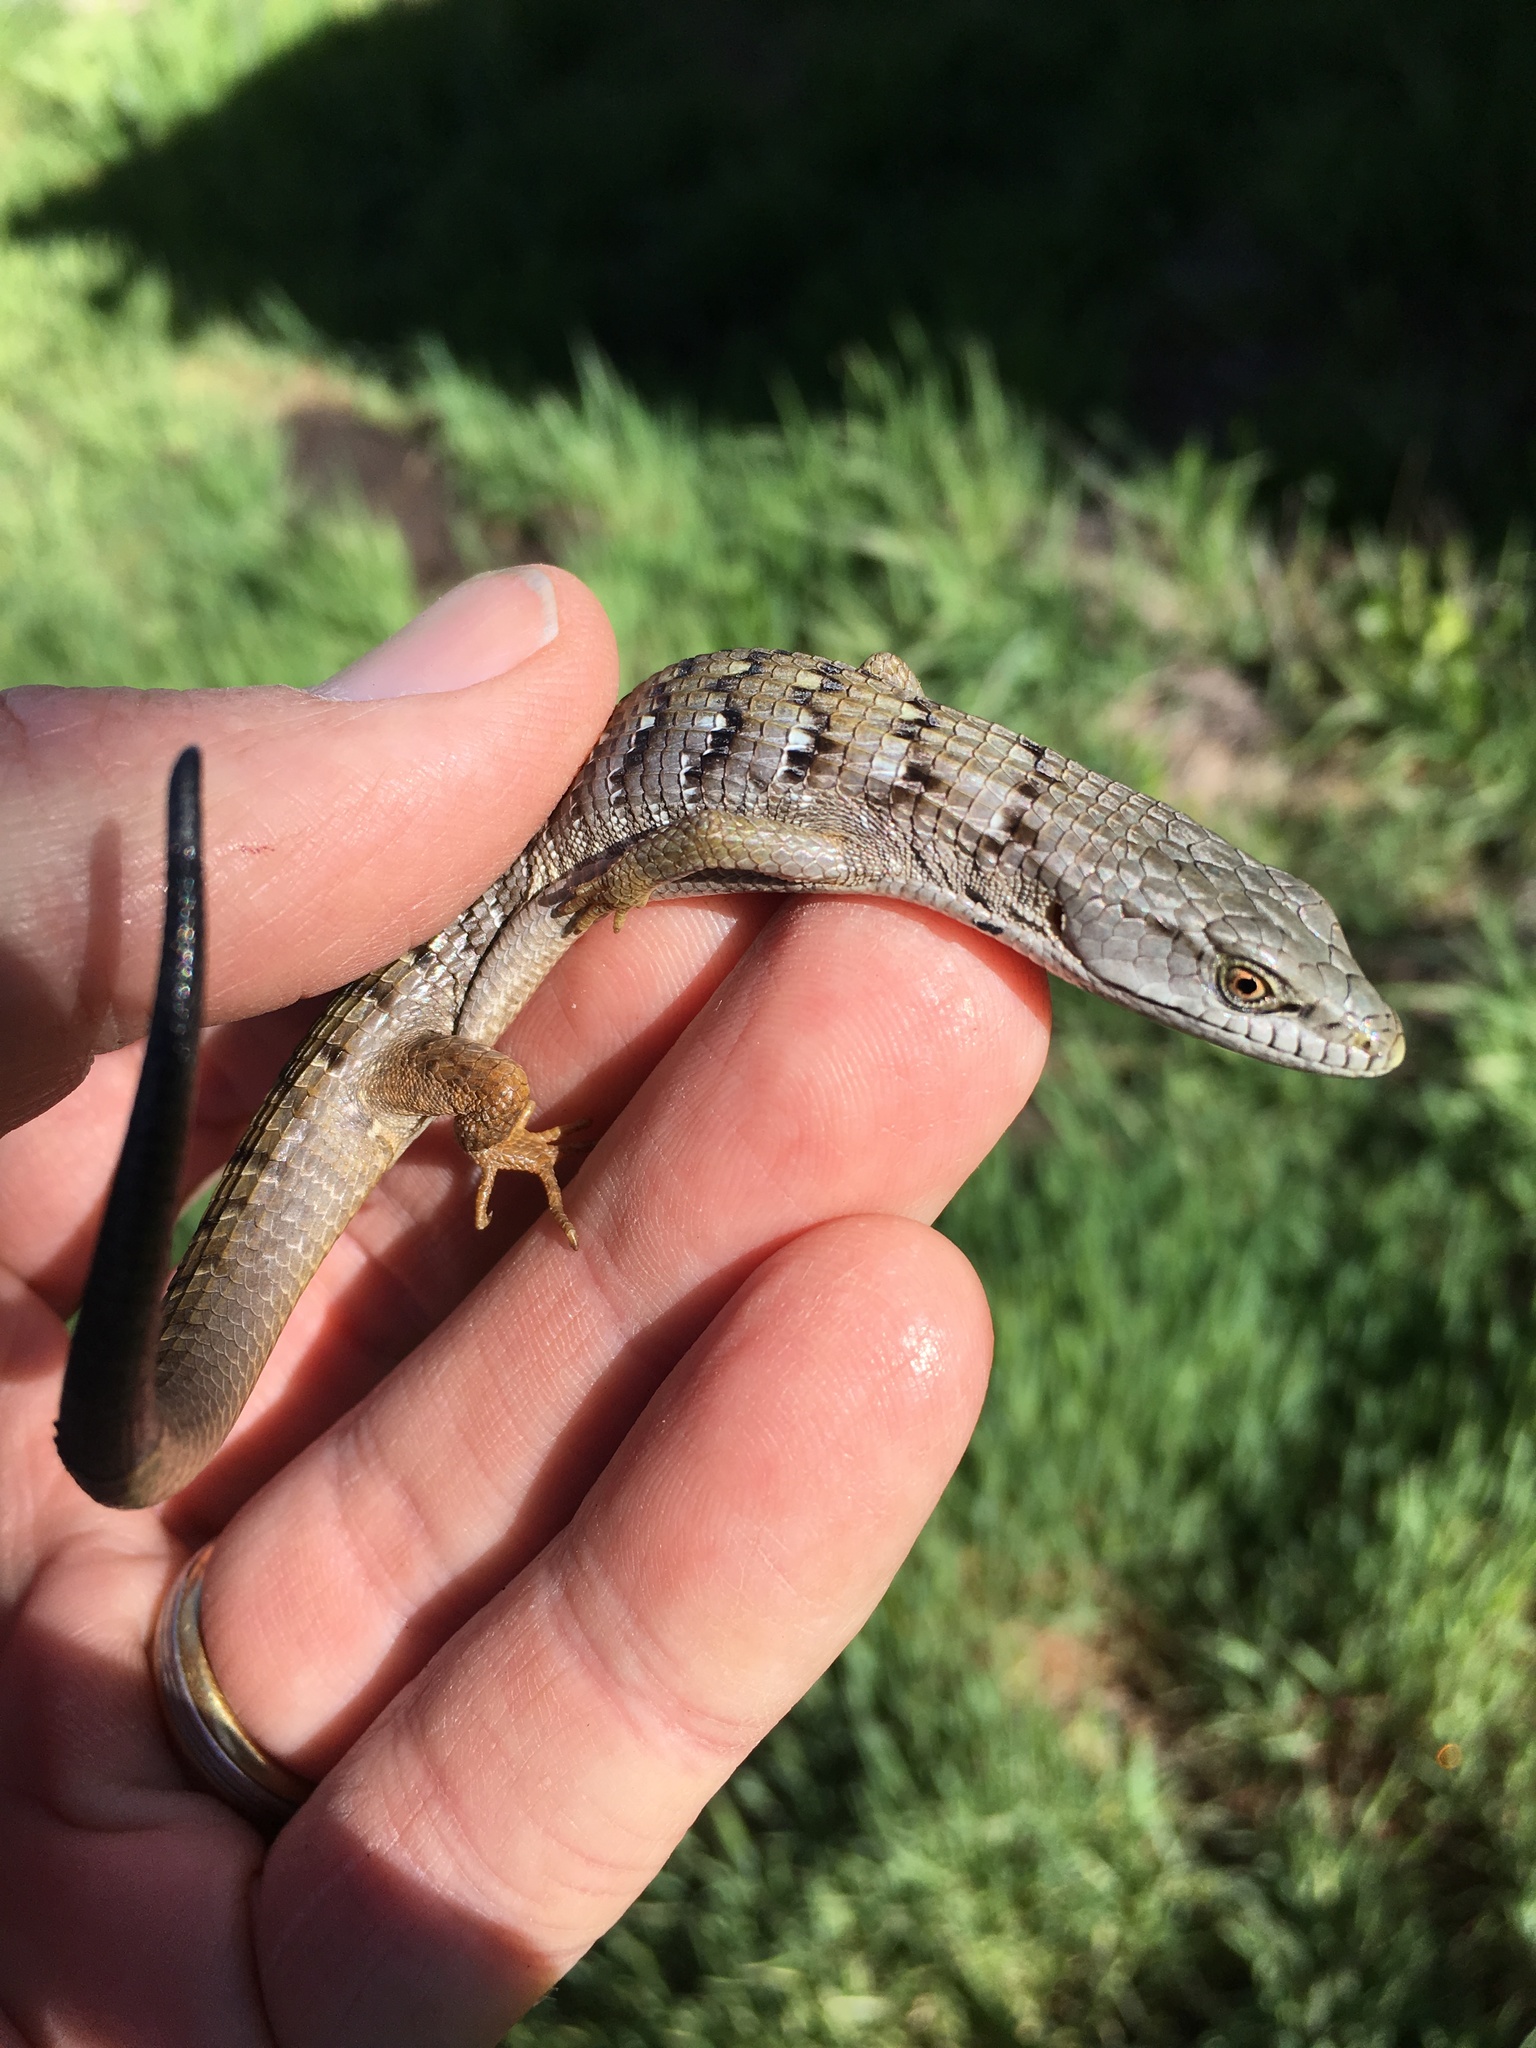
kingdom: Animalia
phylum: Chordata
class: Squamata
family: Anguidae
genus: Elgaria
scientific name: Elgaria multicarinata
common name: Southern alligator lizard
